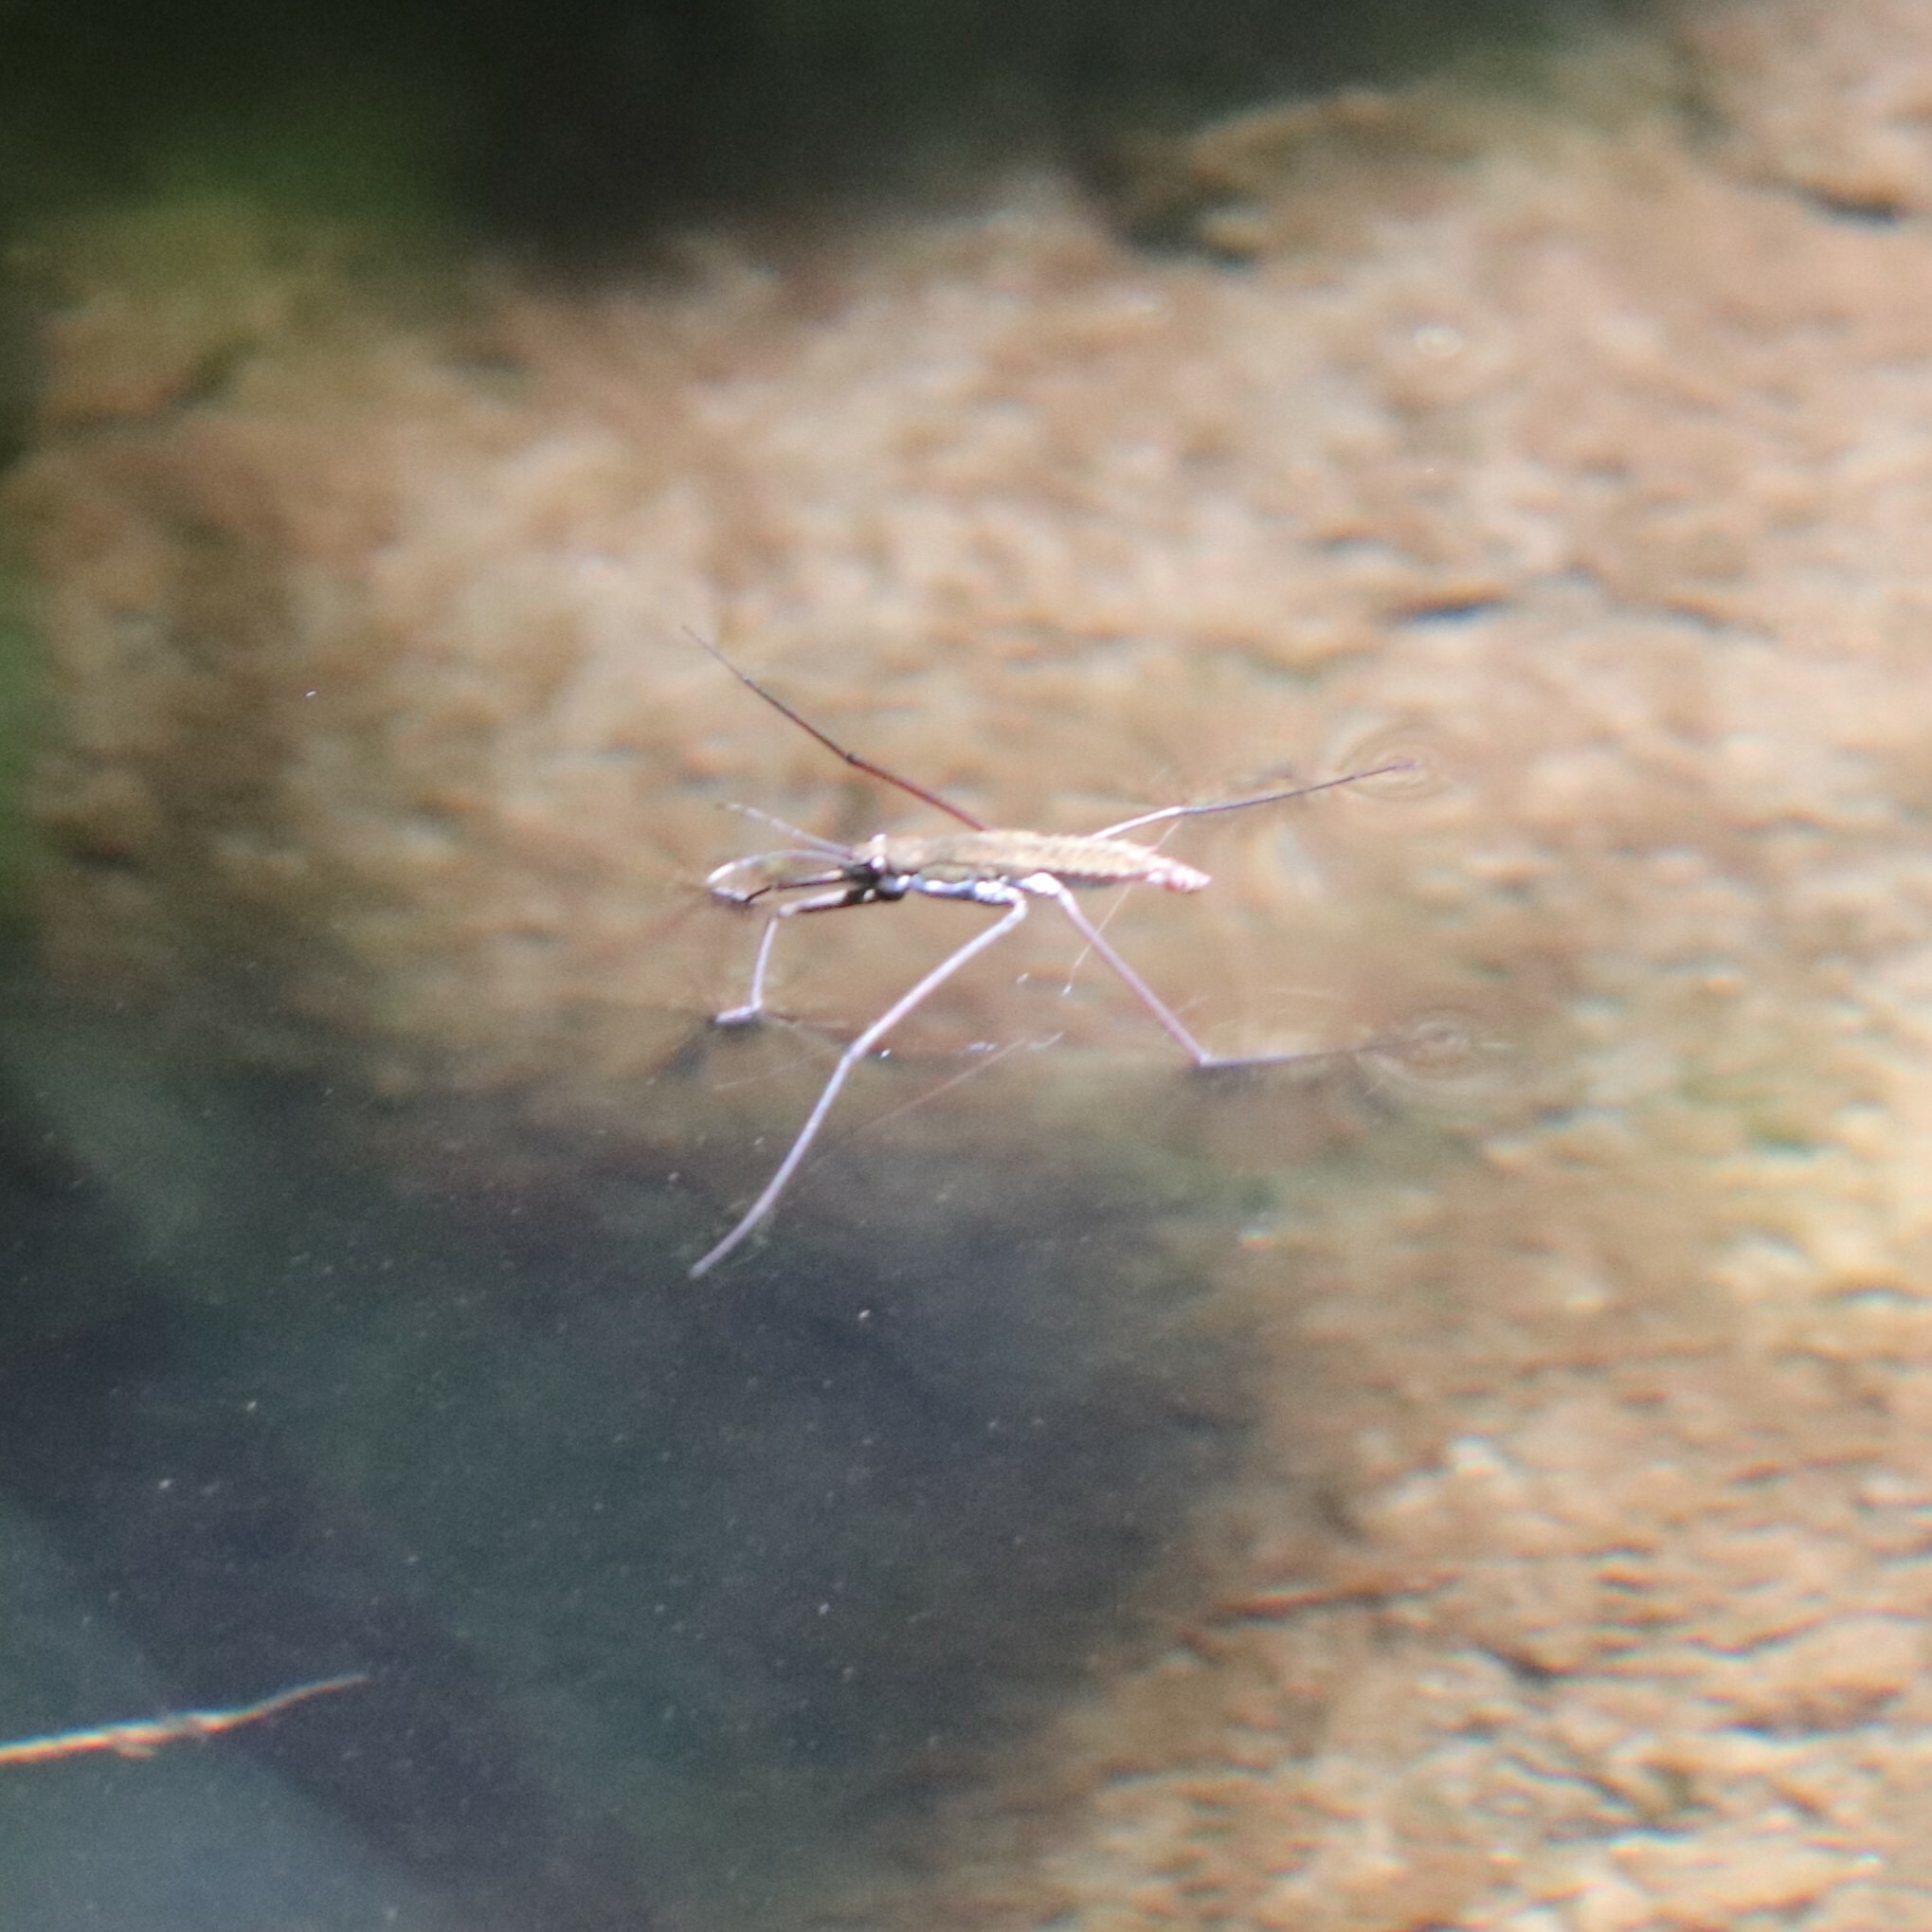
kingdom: Animalia
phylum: Arthropoda
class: Insecta
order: Hemiptera
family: Gerridae
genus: Aquarius
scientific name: Aquarius remigis
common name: Common water strider
